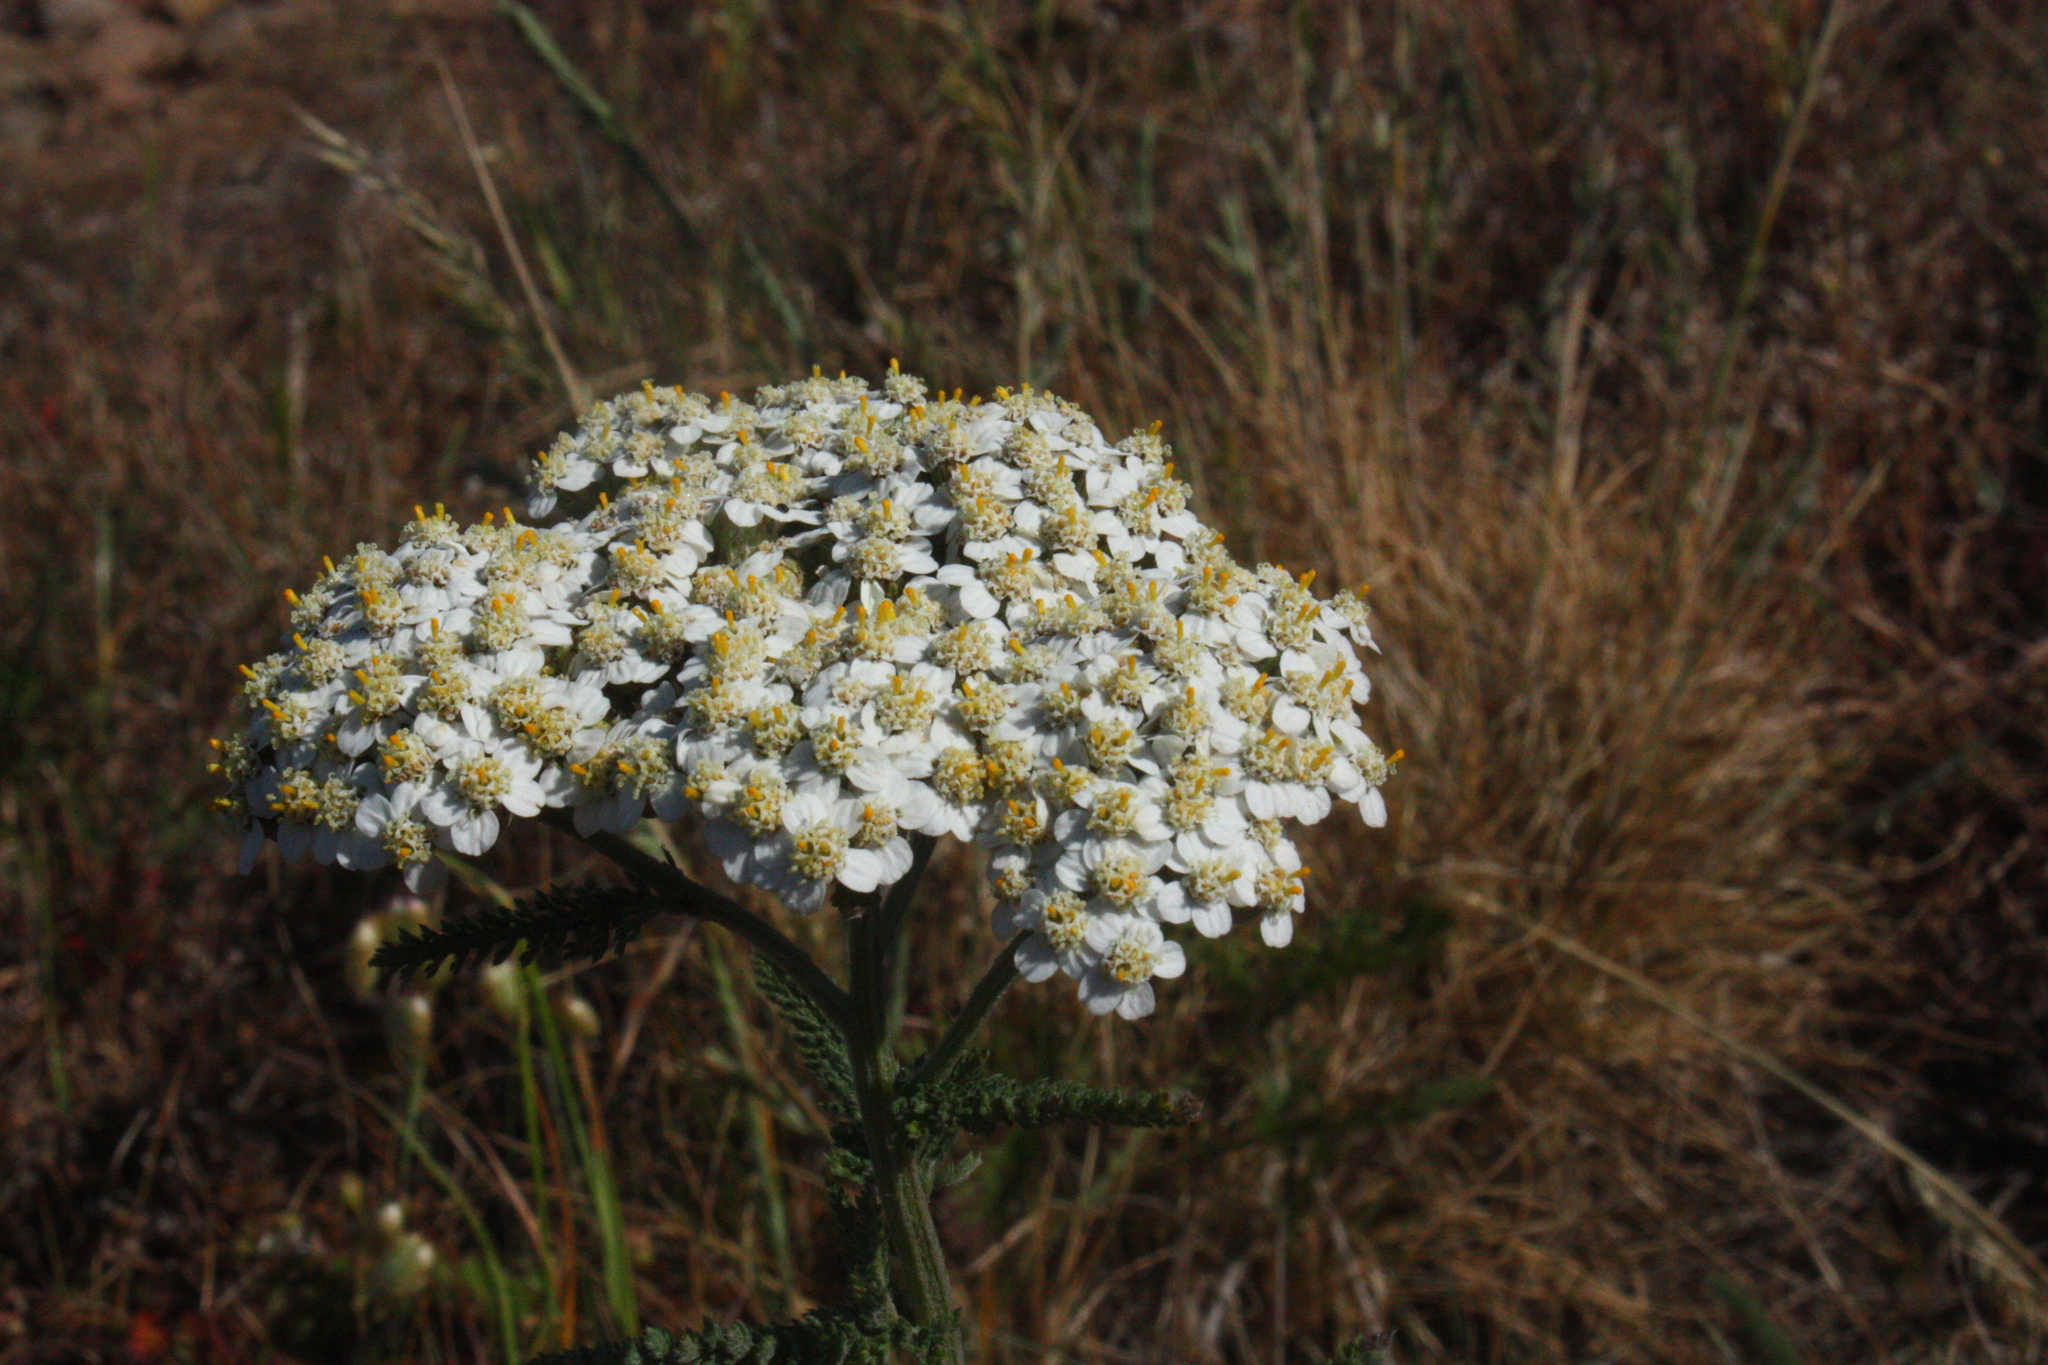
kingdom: Plantae
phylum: Tracheophyta
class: Magnoliopsida
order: Asterales
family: Asteraceae
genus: Achillea
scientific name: Achillea millefolium
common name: Yarrow
